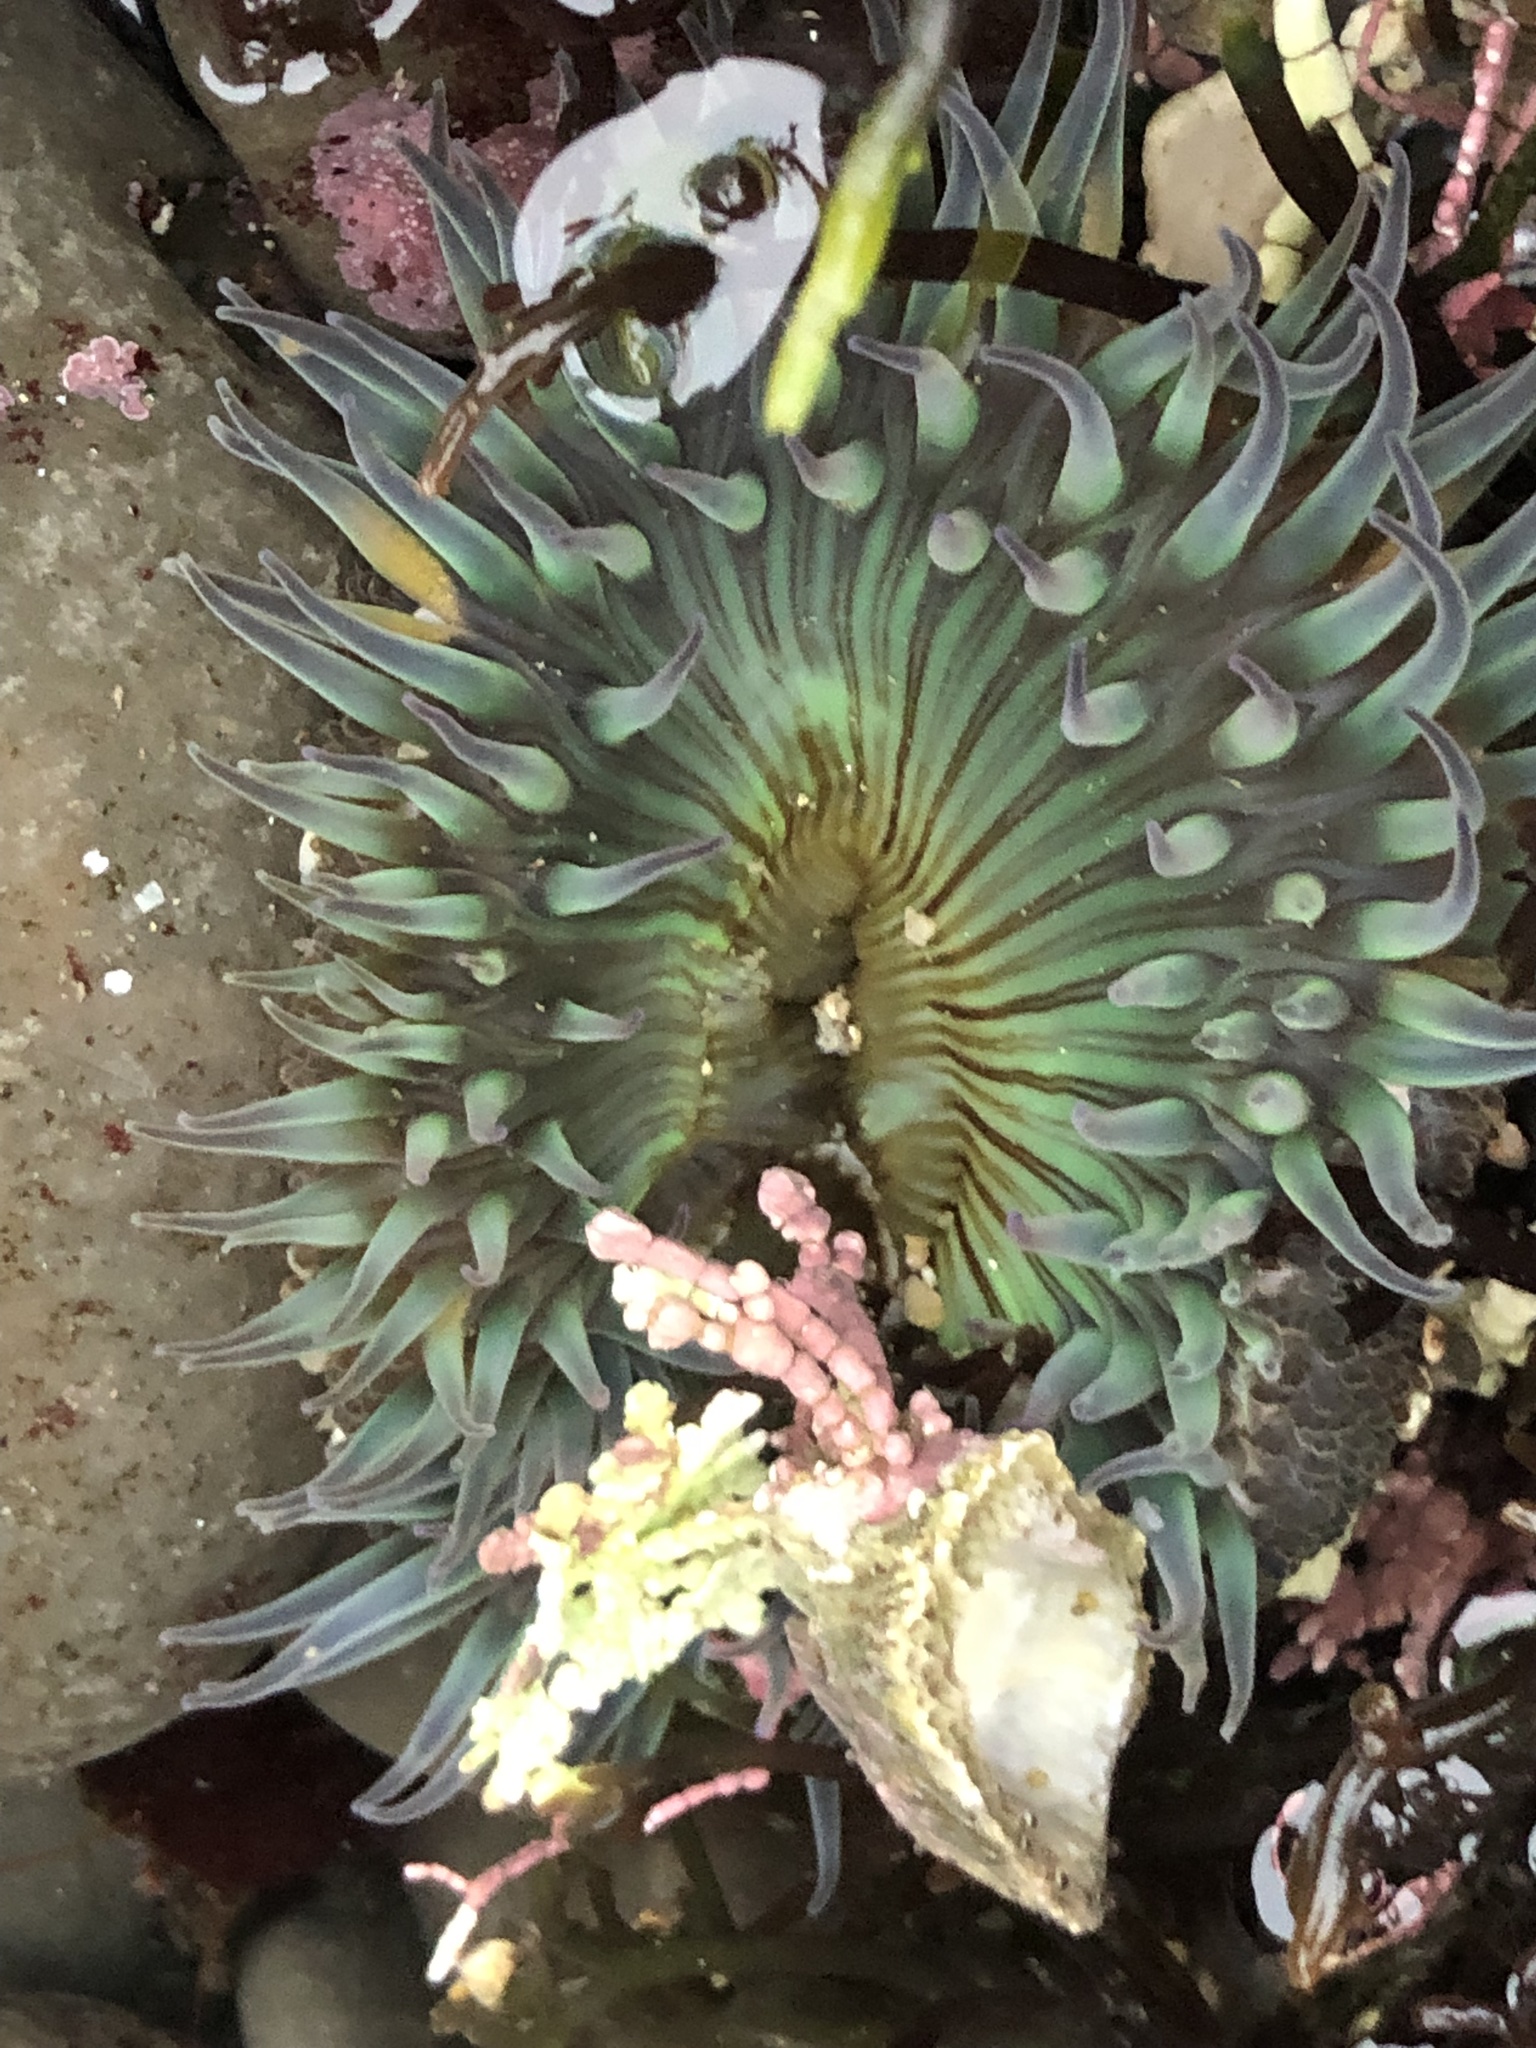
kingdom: Animalia
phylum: Cnidaria
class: Anthozoa
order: Actiniaria
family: Actiniidae
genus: Anthopleura
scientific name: Anthopleura sola
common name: Sun anemone
